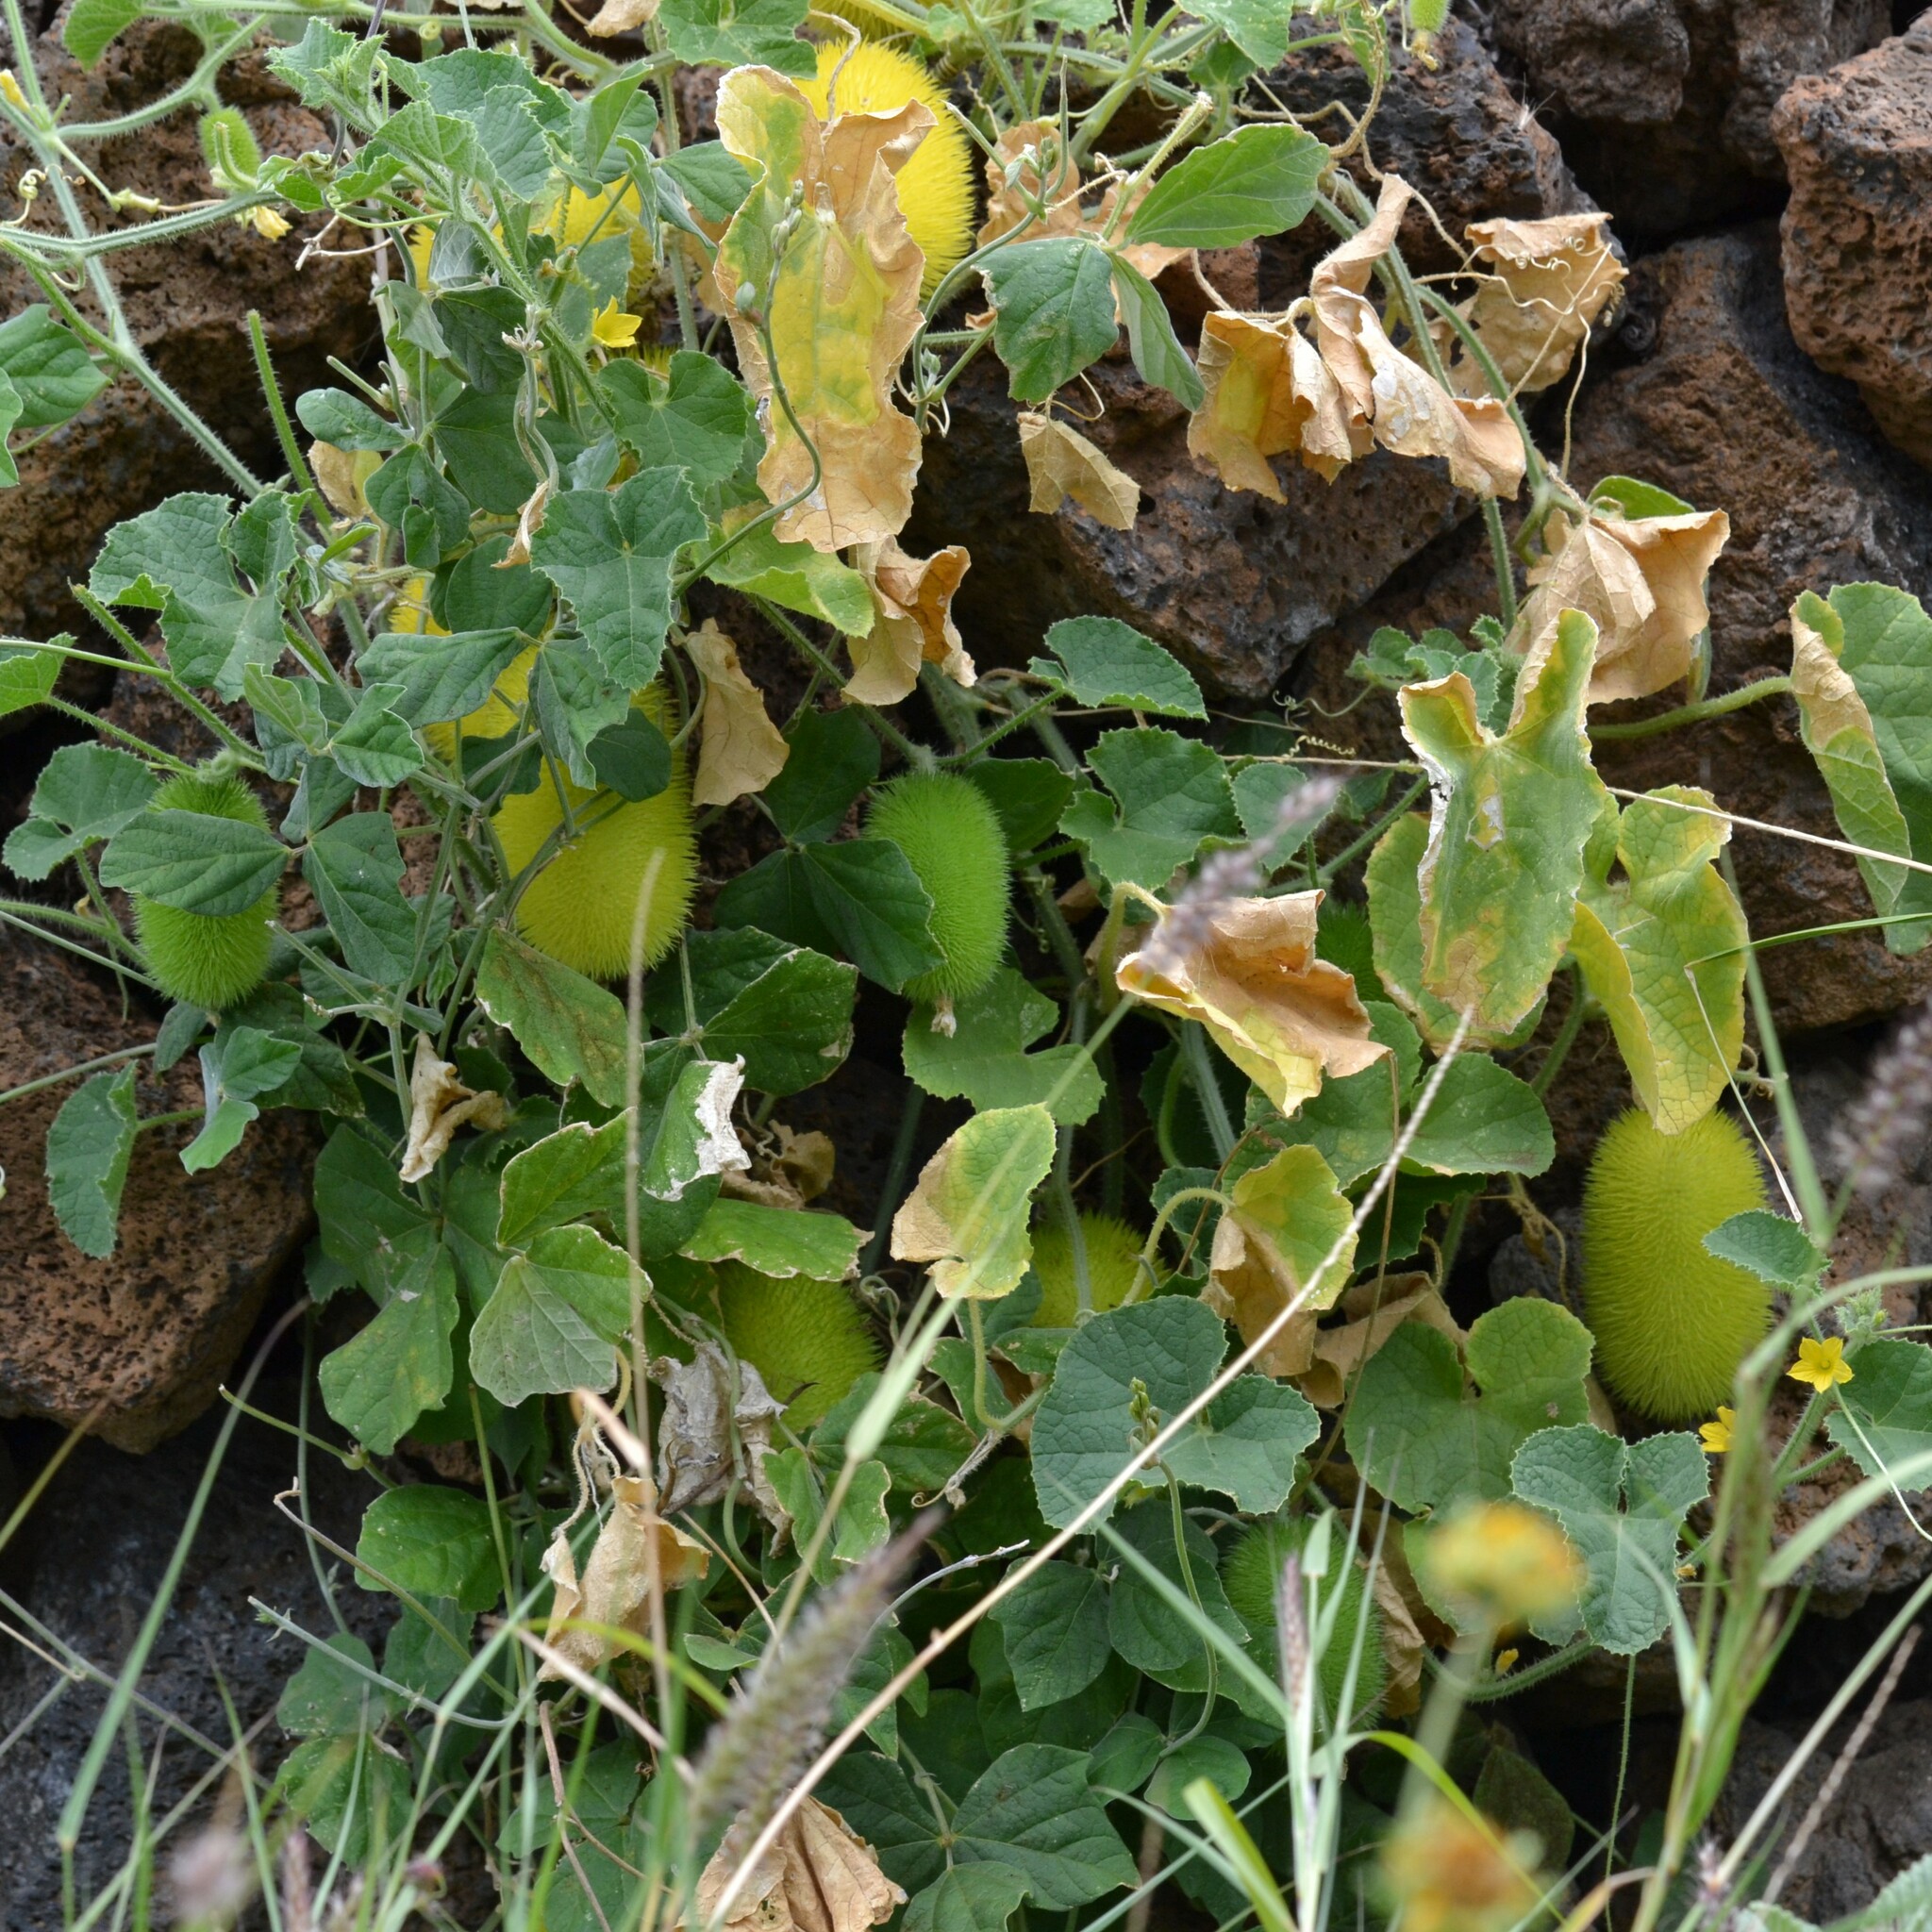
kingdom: Plantae
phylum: Tracheophyta
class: Magnoliopsida
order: Cucurbitales
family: Cucurbitaceae
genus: Cucumis
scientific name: Cucumis dipsaceus
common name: Hedgehog gourd
